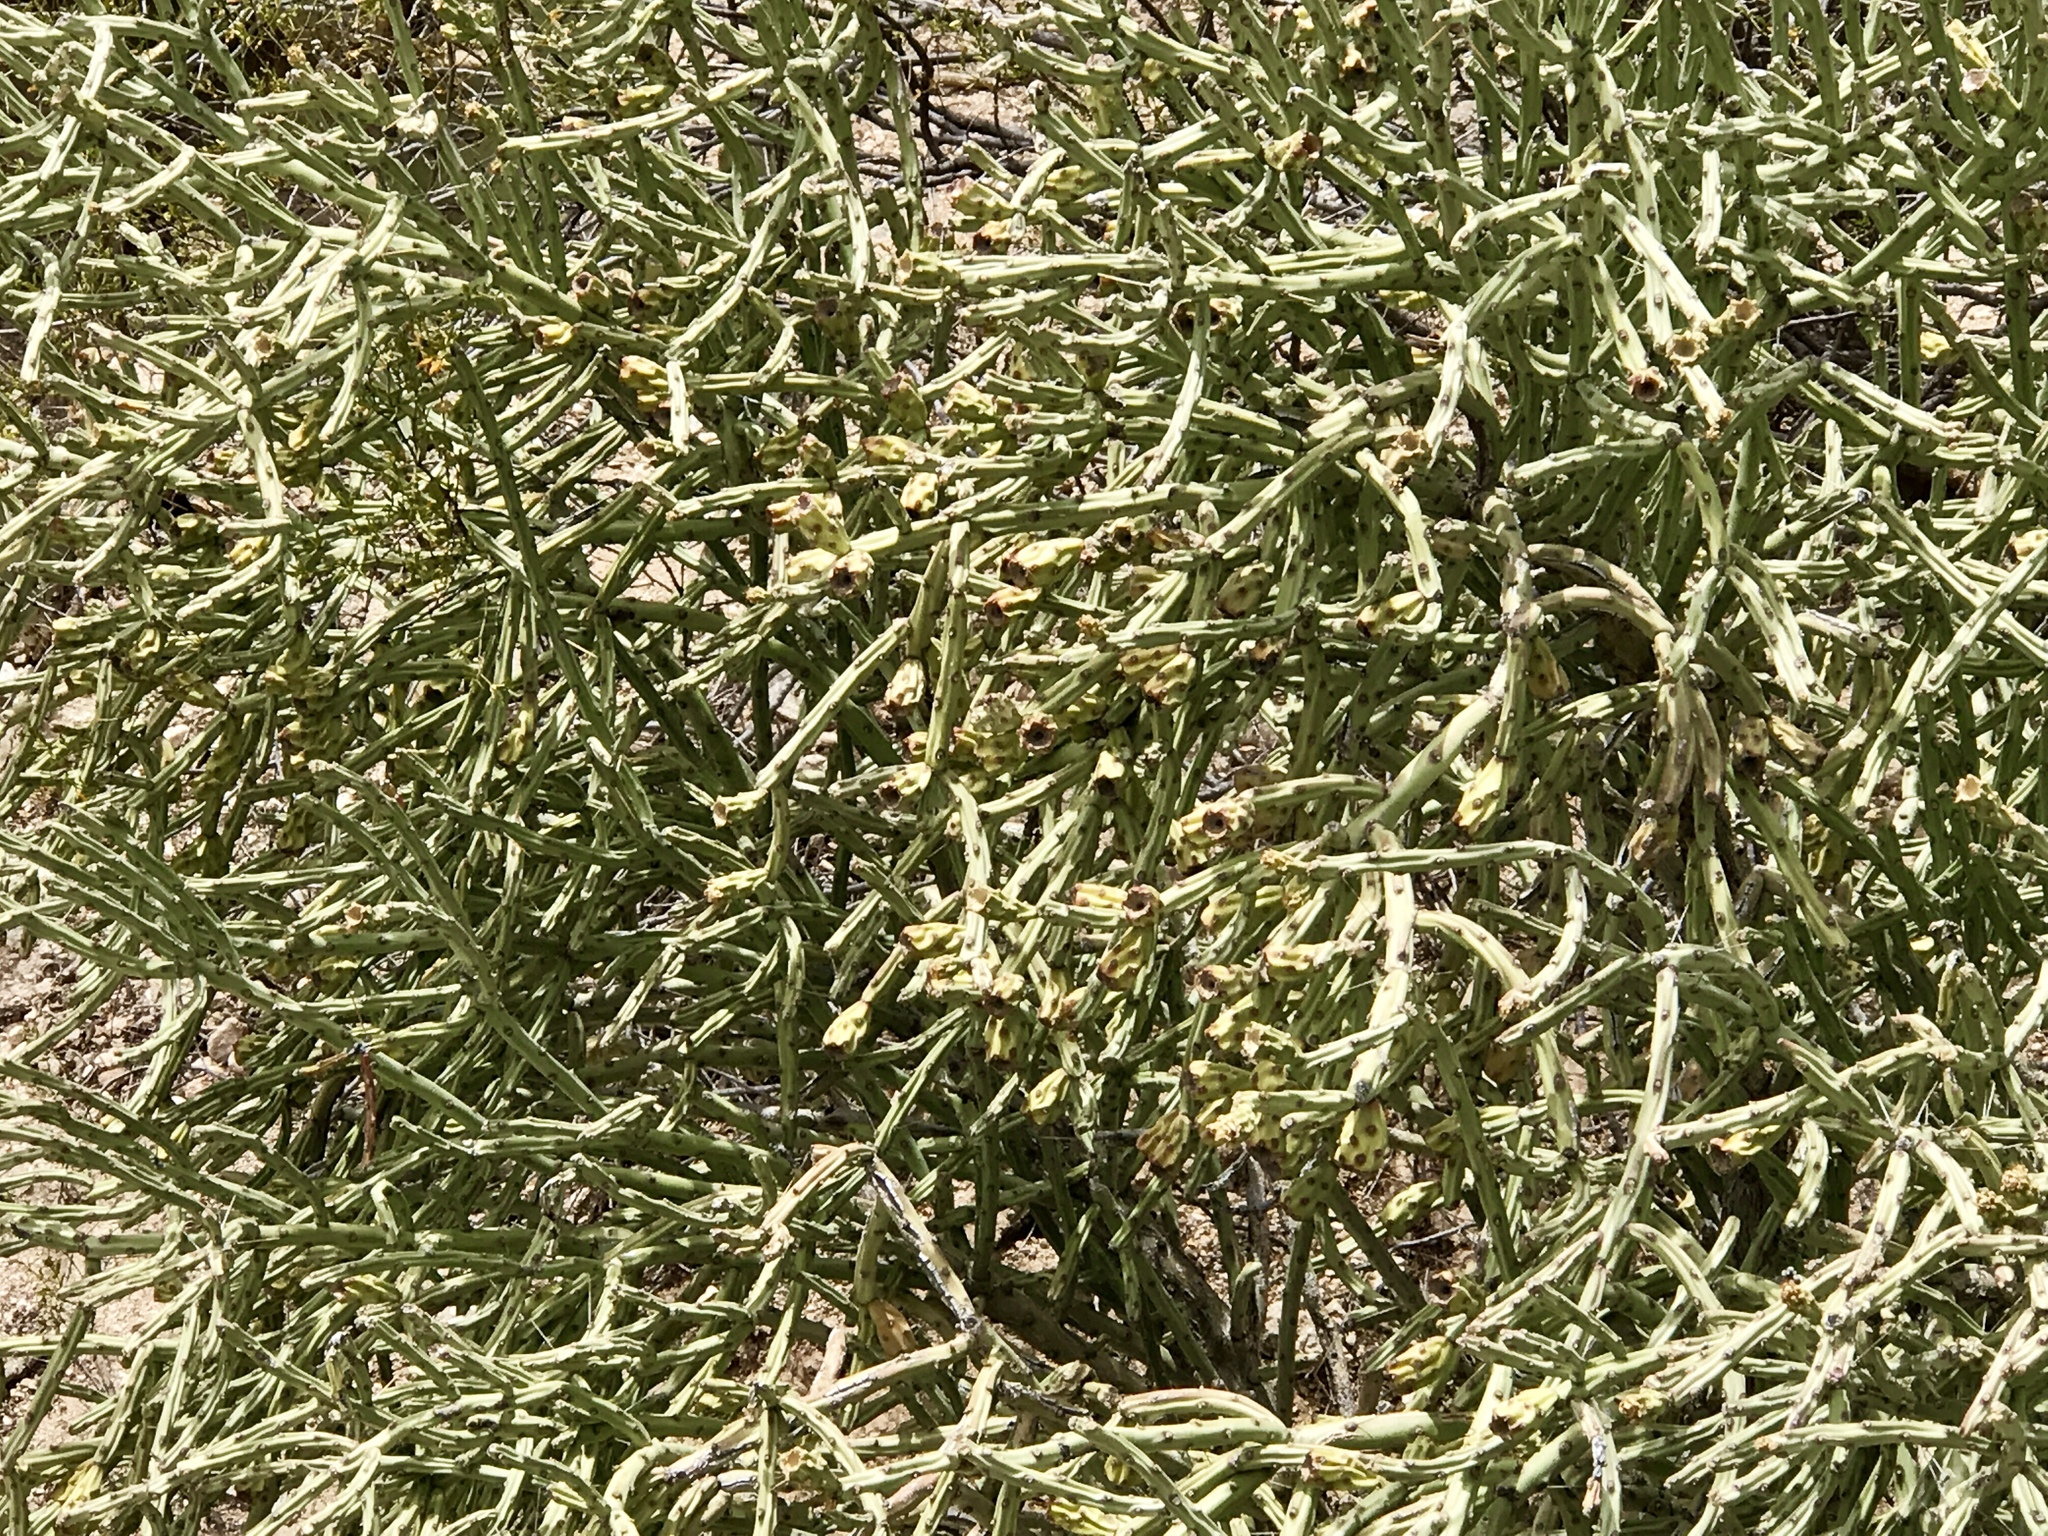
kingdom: Plantae
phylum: Tracheophyta
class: Magnoliopsida
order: Caryophyllales
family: Cactaceae
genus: Cylindropuntia
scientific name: Cylindropuntia arbuscula
